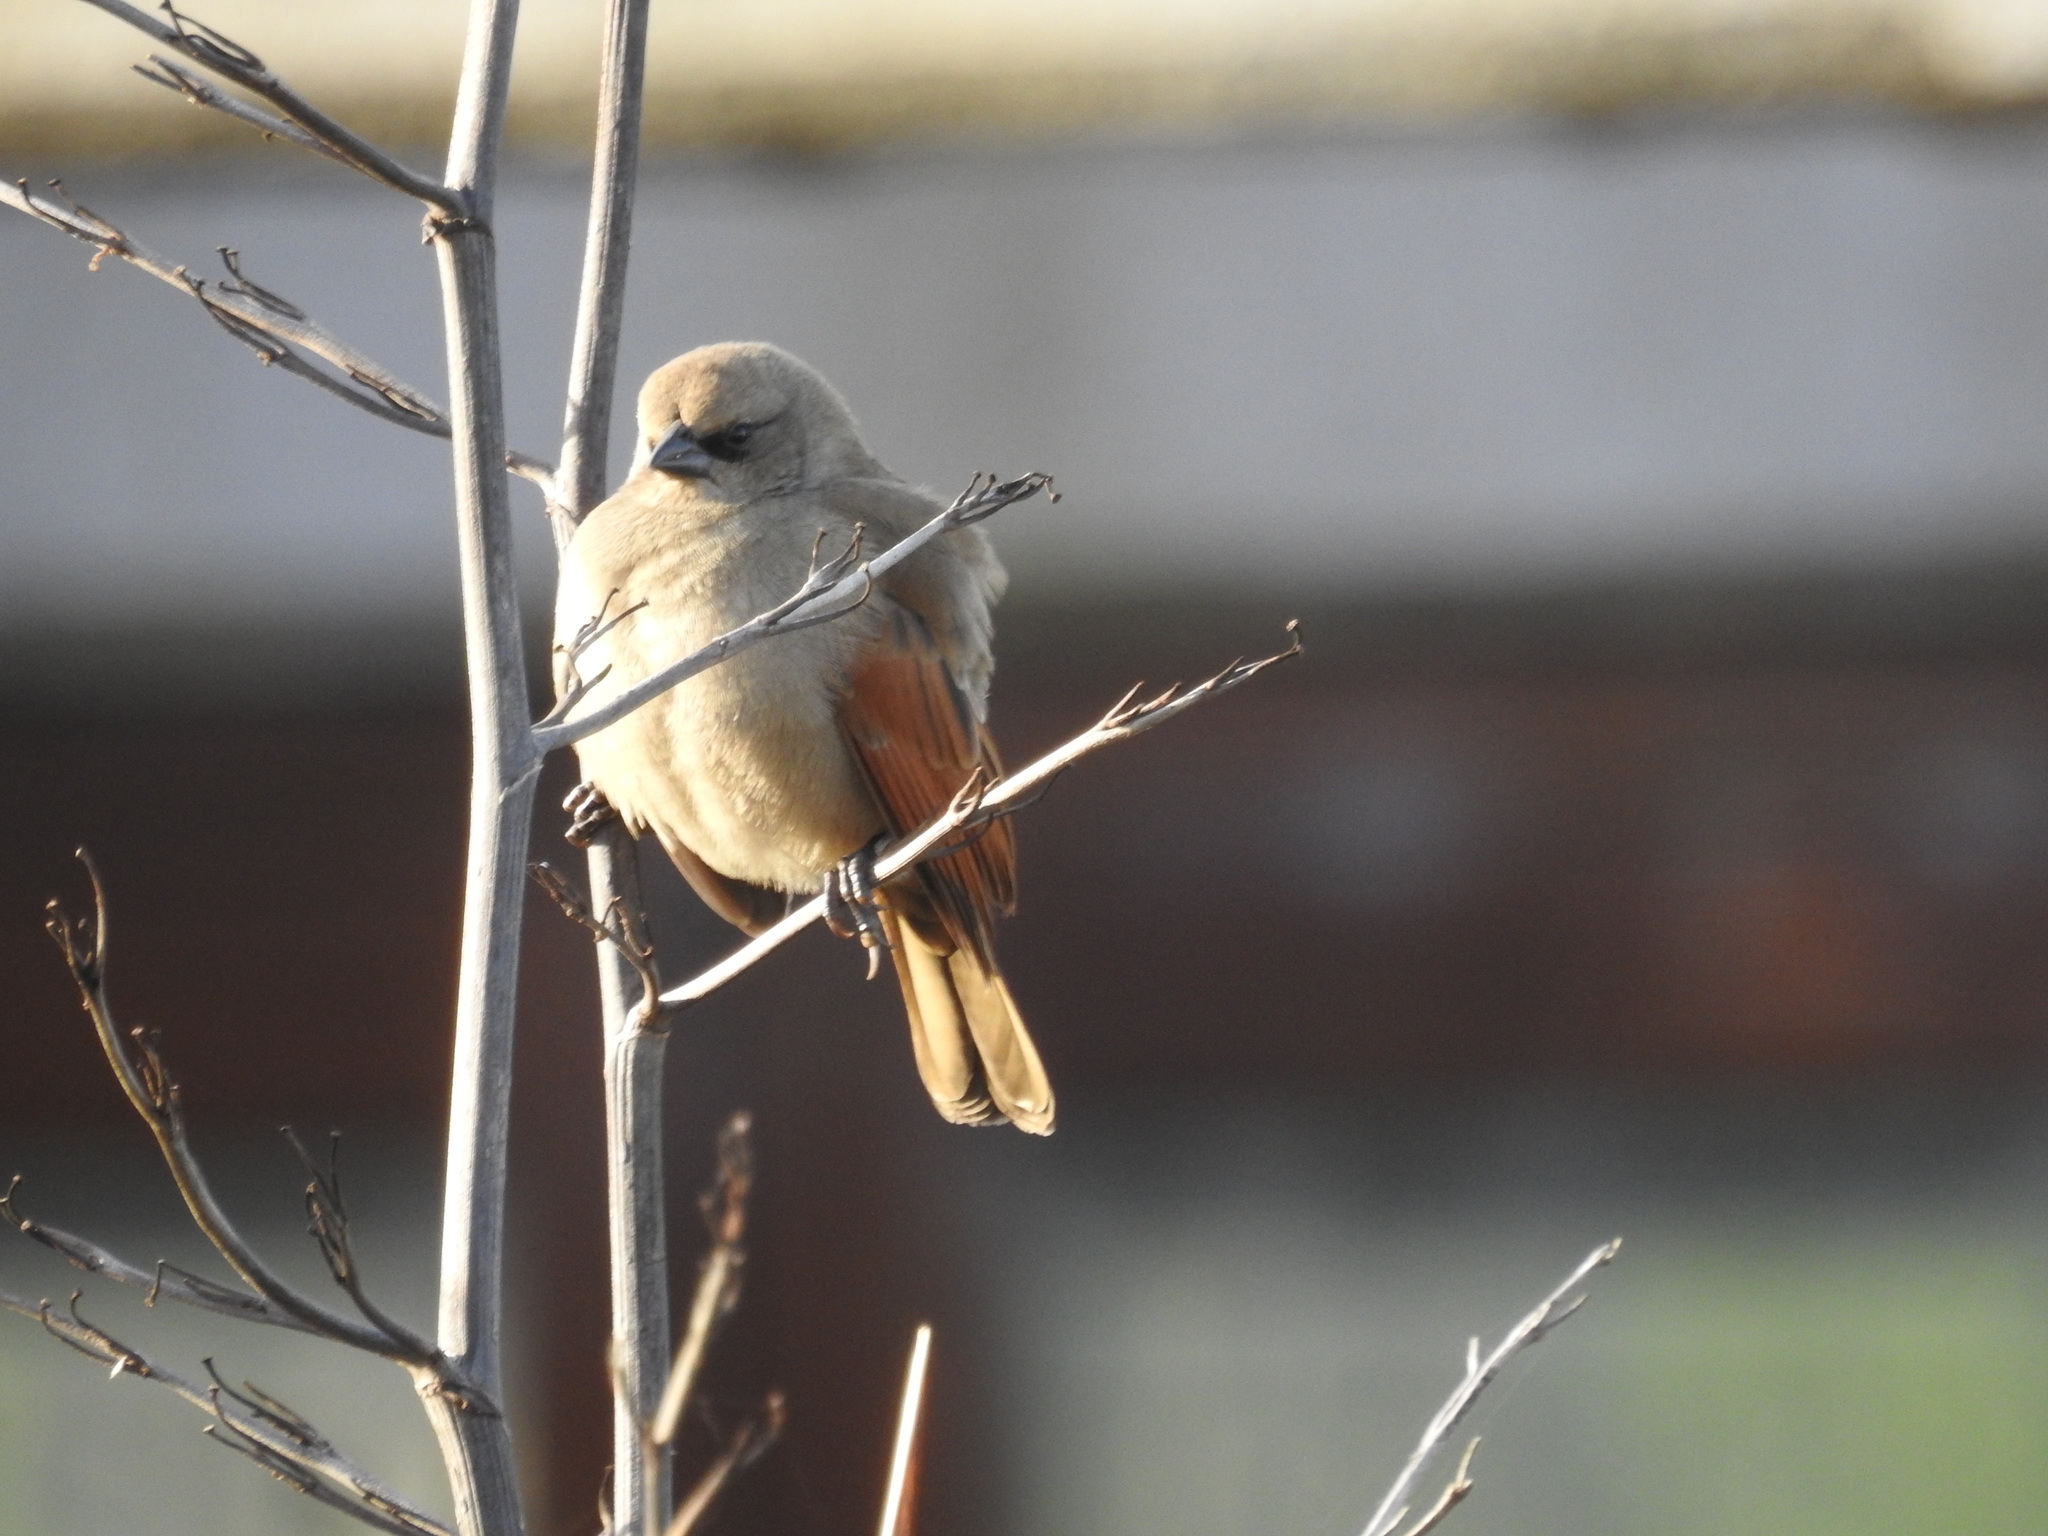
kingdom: Animalia
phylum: Chordata
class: Aves
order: Passeriformes
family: Icteridae
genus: Agelaioides
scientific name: Agelaioides badius
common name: Baywing
